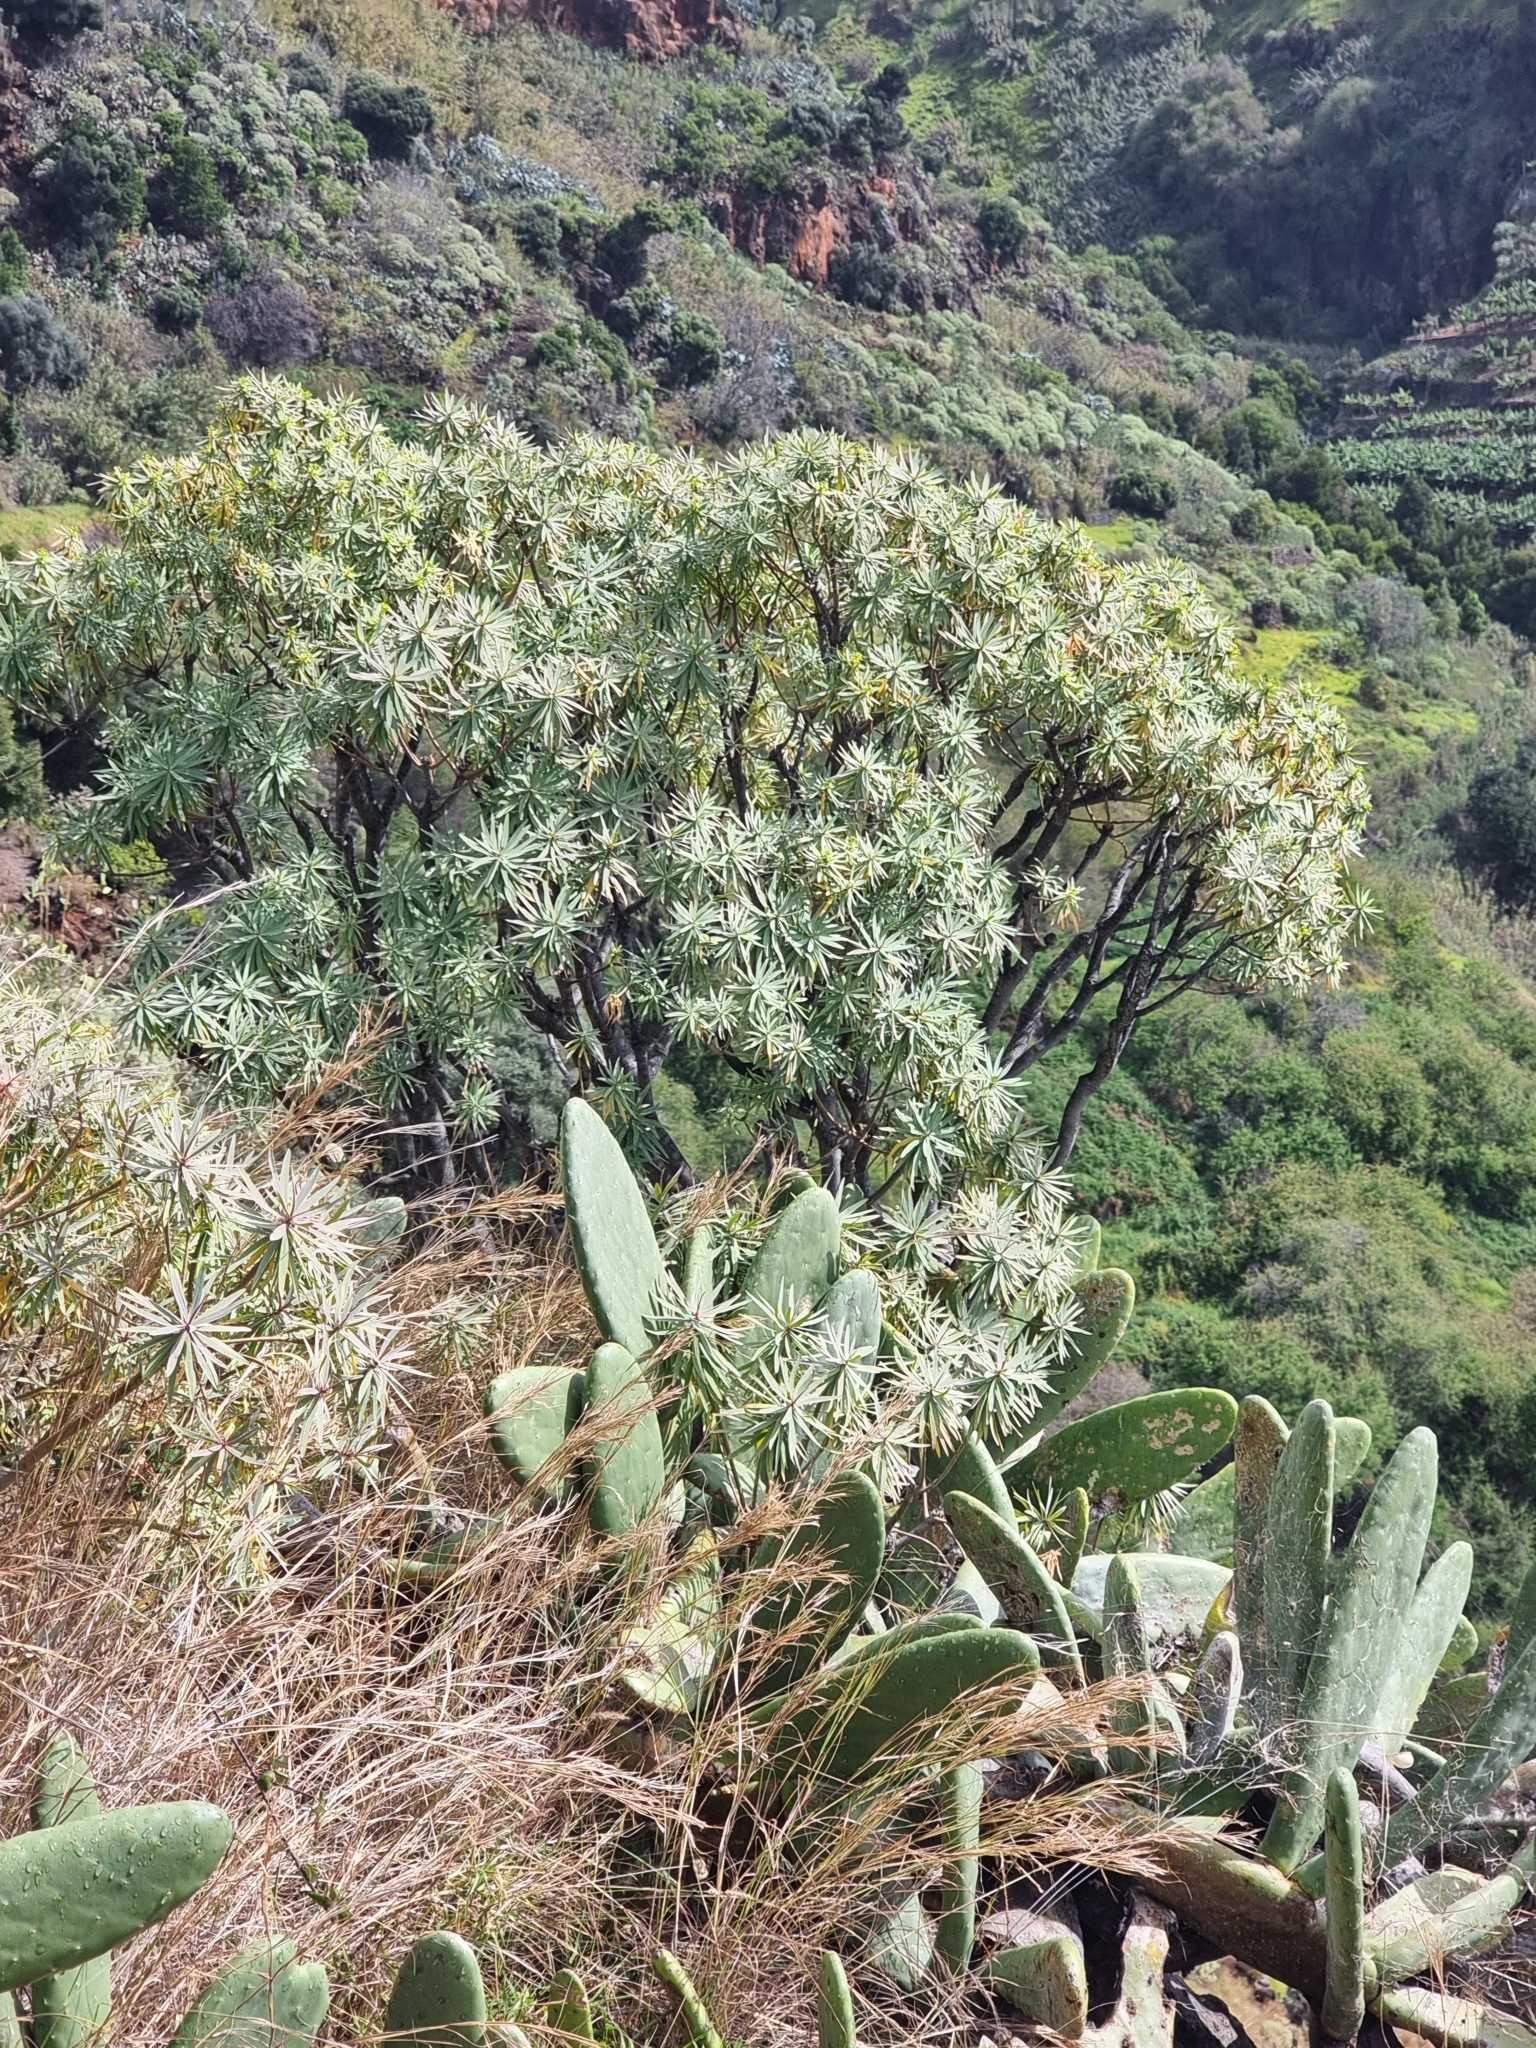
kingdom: Plantae
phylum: Tracheophyta
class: Magnoliopsida
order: Malpighiales
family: Euphorbiaceae
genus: Euphorbia
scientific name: Euphorbia piscatoria
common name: Fish-stunning spurge
